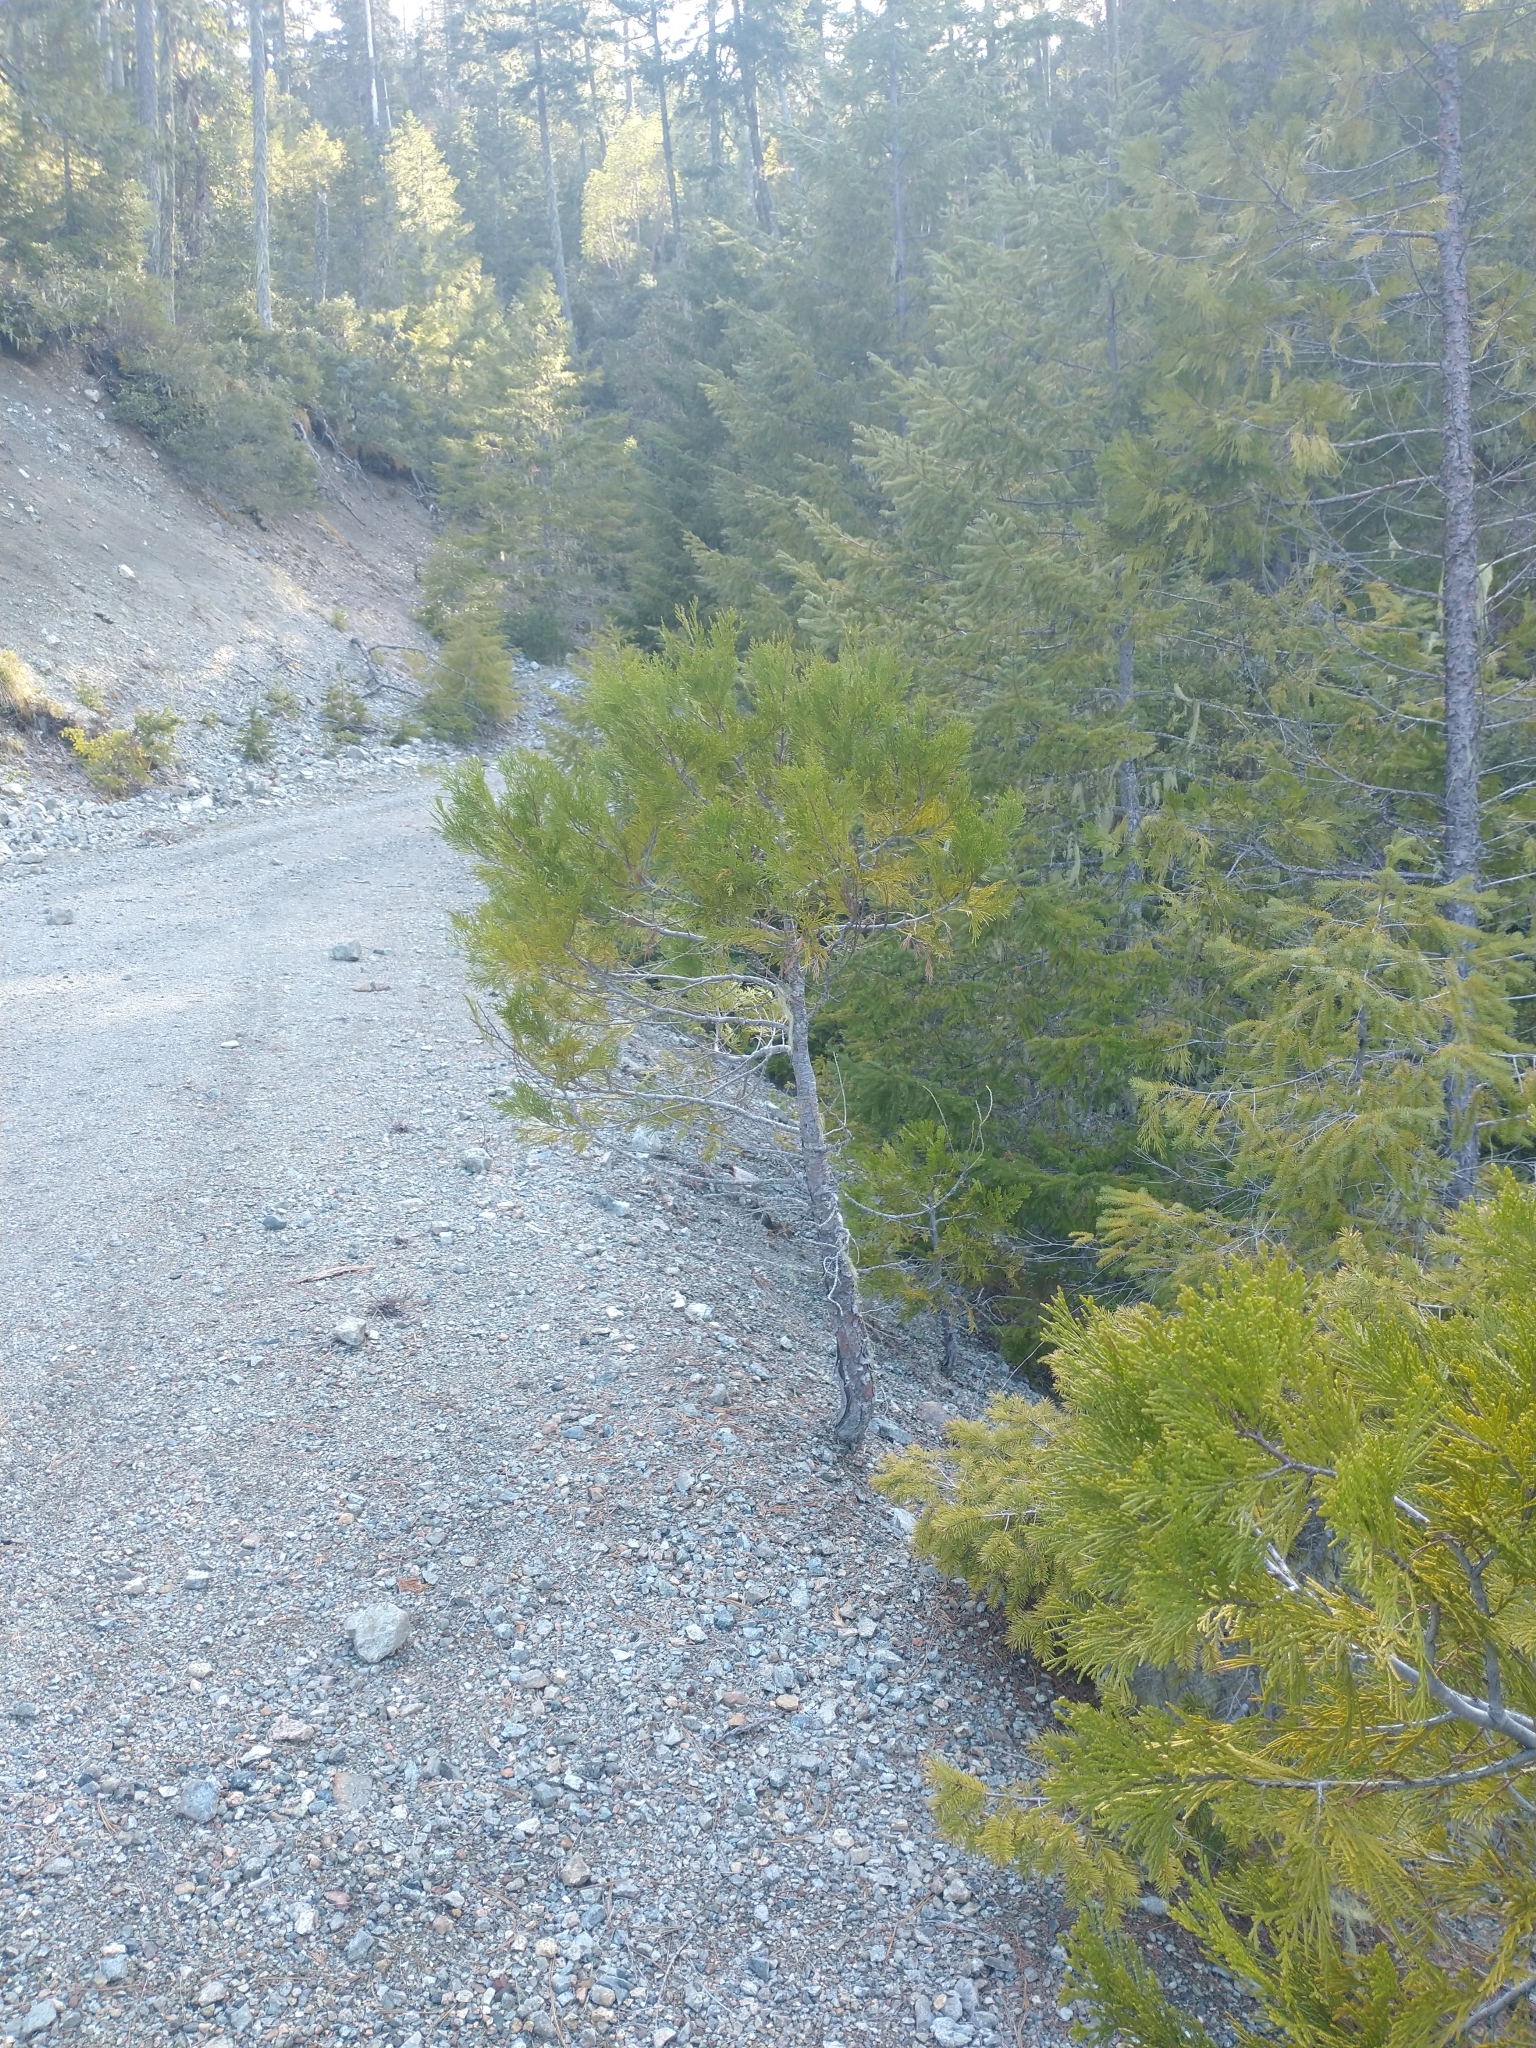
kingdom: Plantae
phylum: Tracheophyta
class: Pinopsida
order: Pinales
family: Cupressaceae
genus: Calocedrus
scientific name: Calocedrus decurrens
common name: Californian incense-cedar
